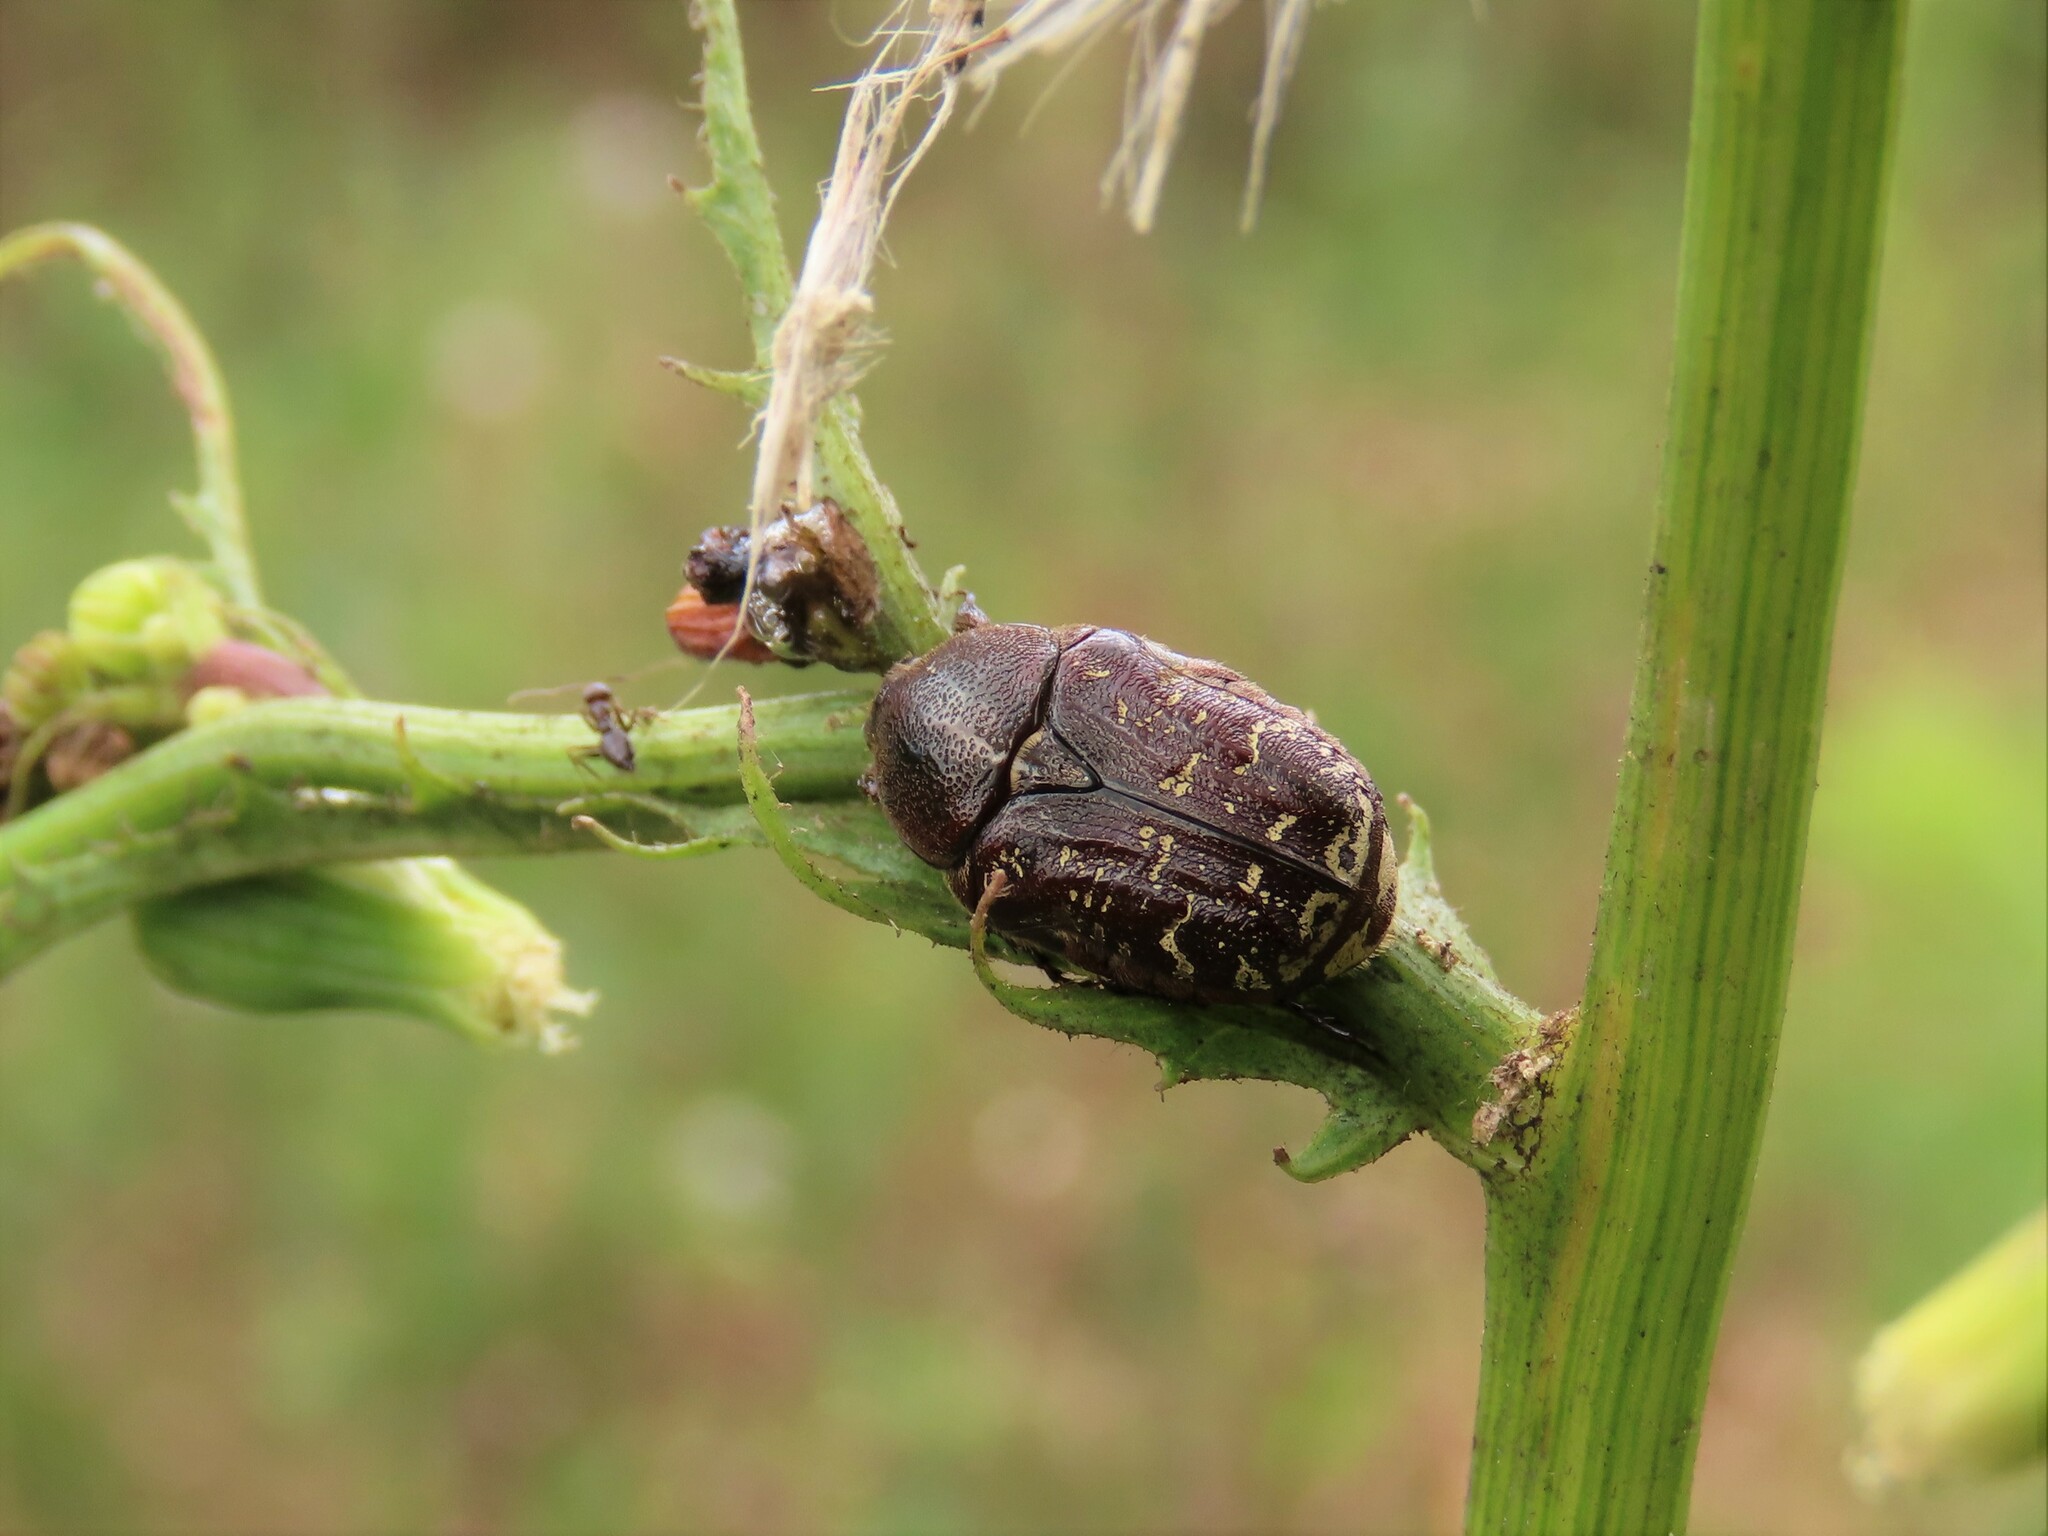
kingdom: Animalia
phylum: Arthropoda
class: Insecta
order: Coleoptera
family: Scarabaeidae
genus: Euphoria
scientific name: Euphoria sepulcralis
